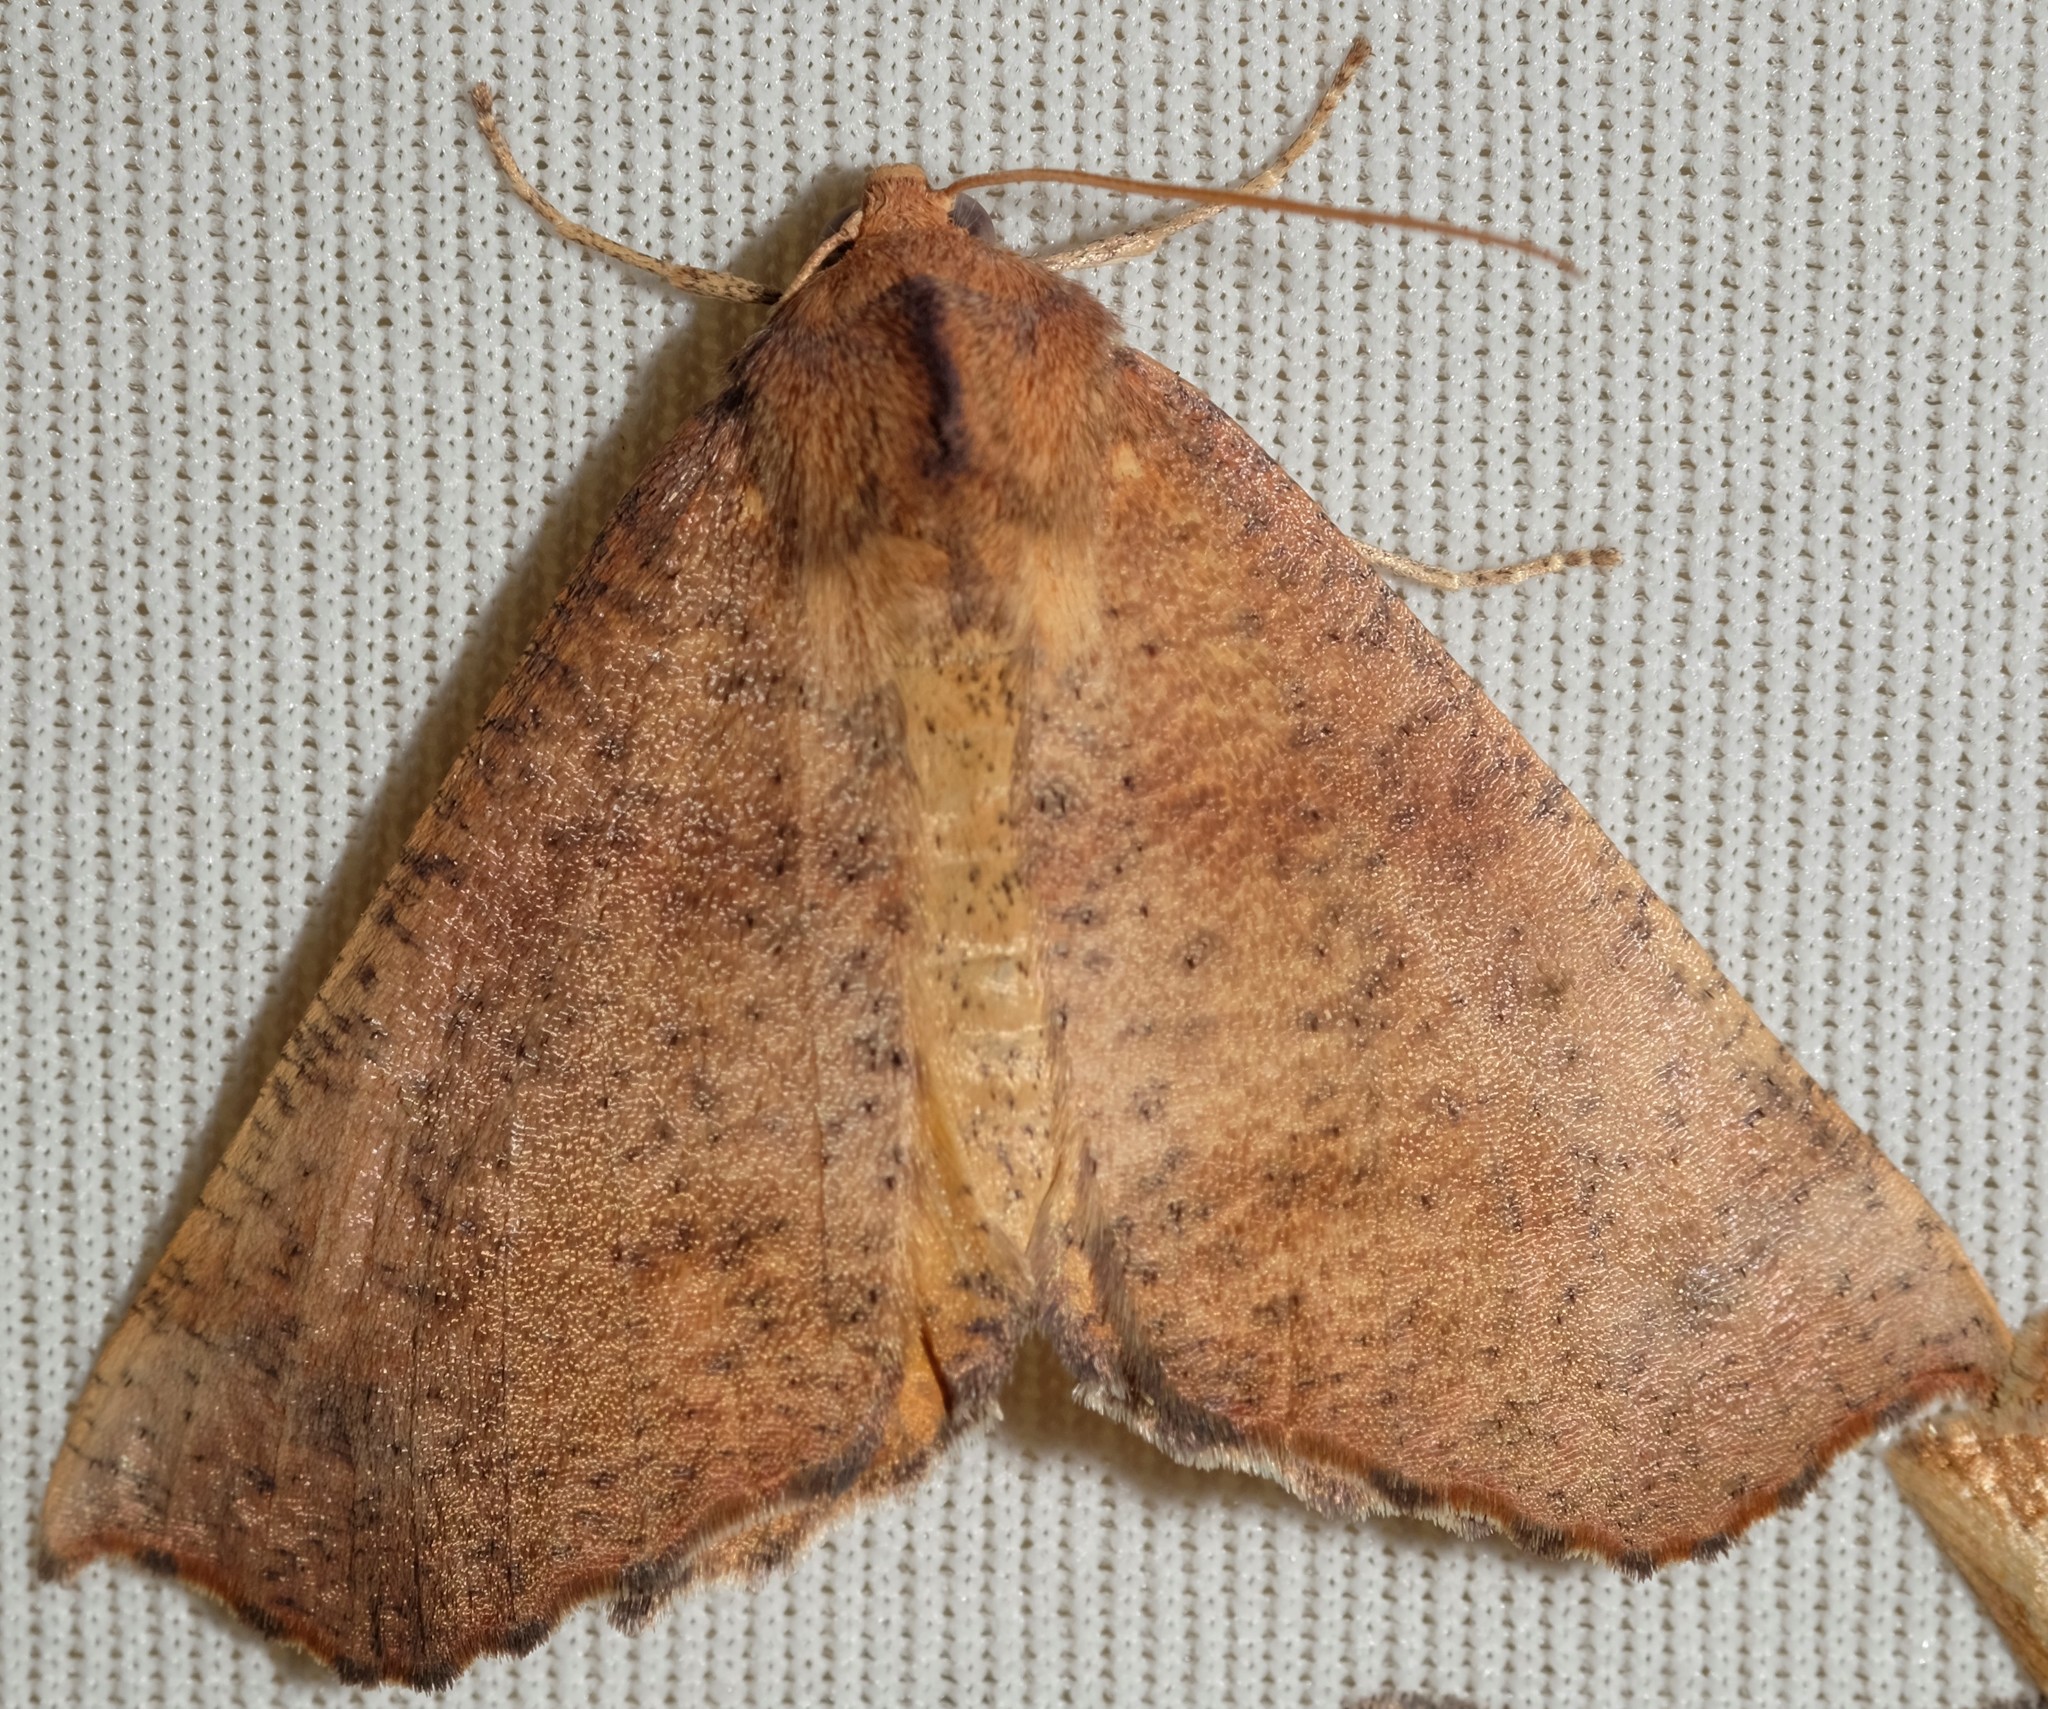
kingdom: Animalia
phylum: Arthropoda
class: Insecta
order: Lepidoptera
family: Geometridae
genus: Mnesampela
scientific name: Mnesampela privata
